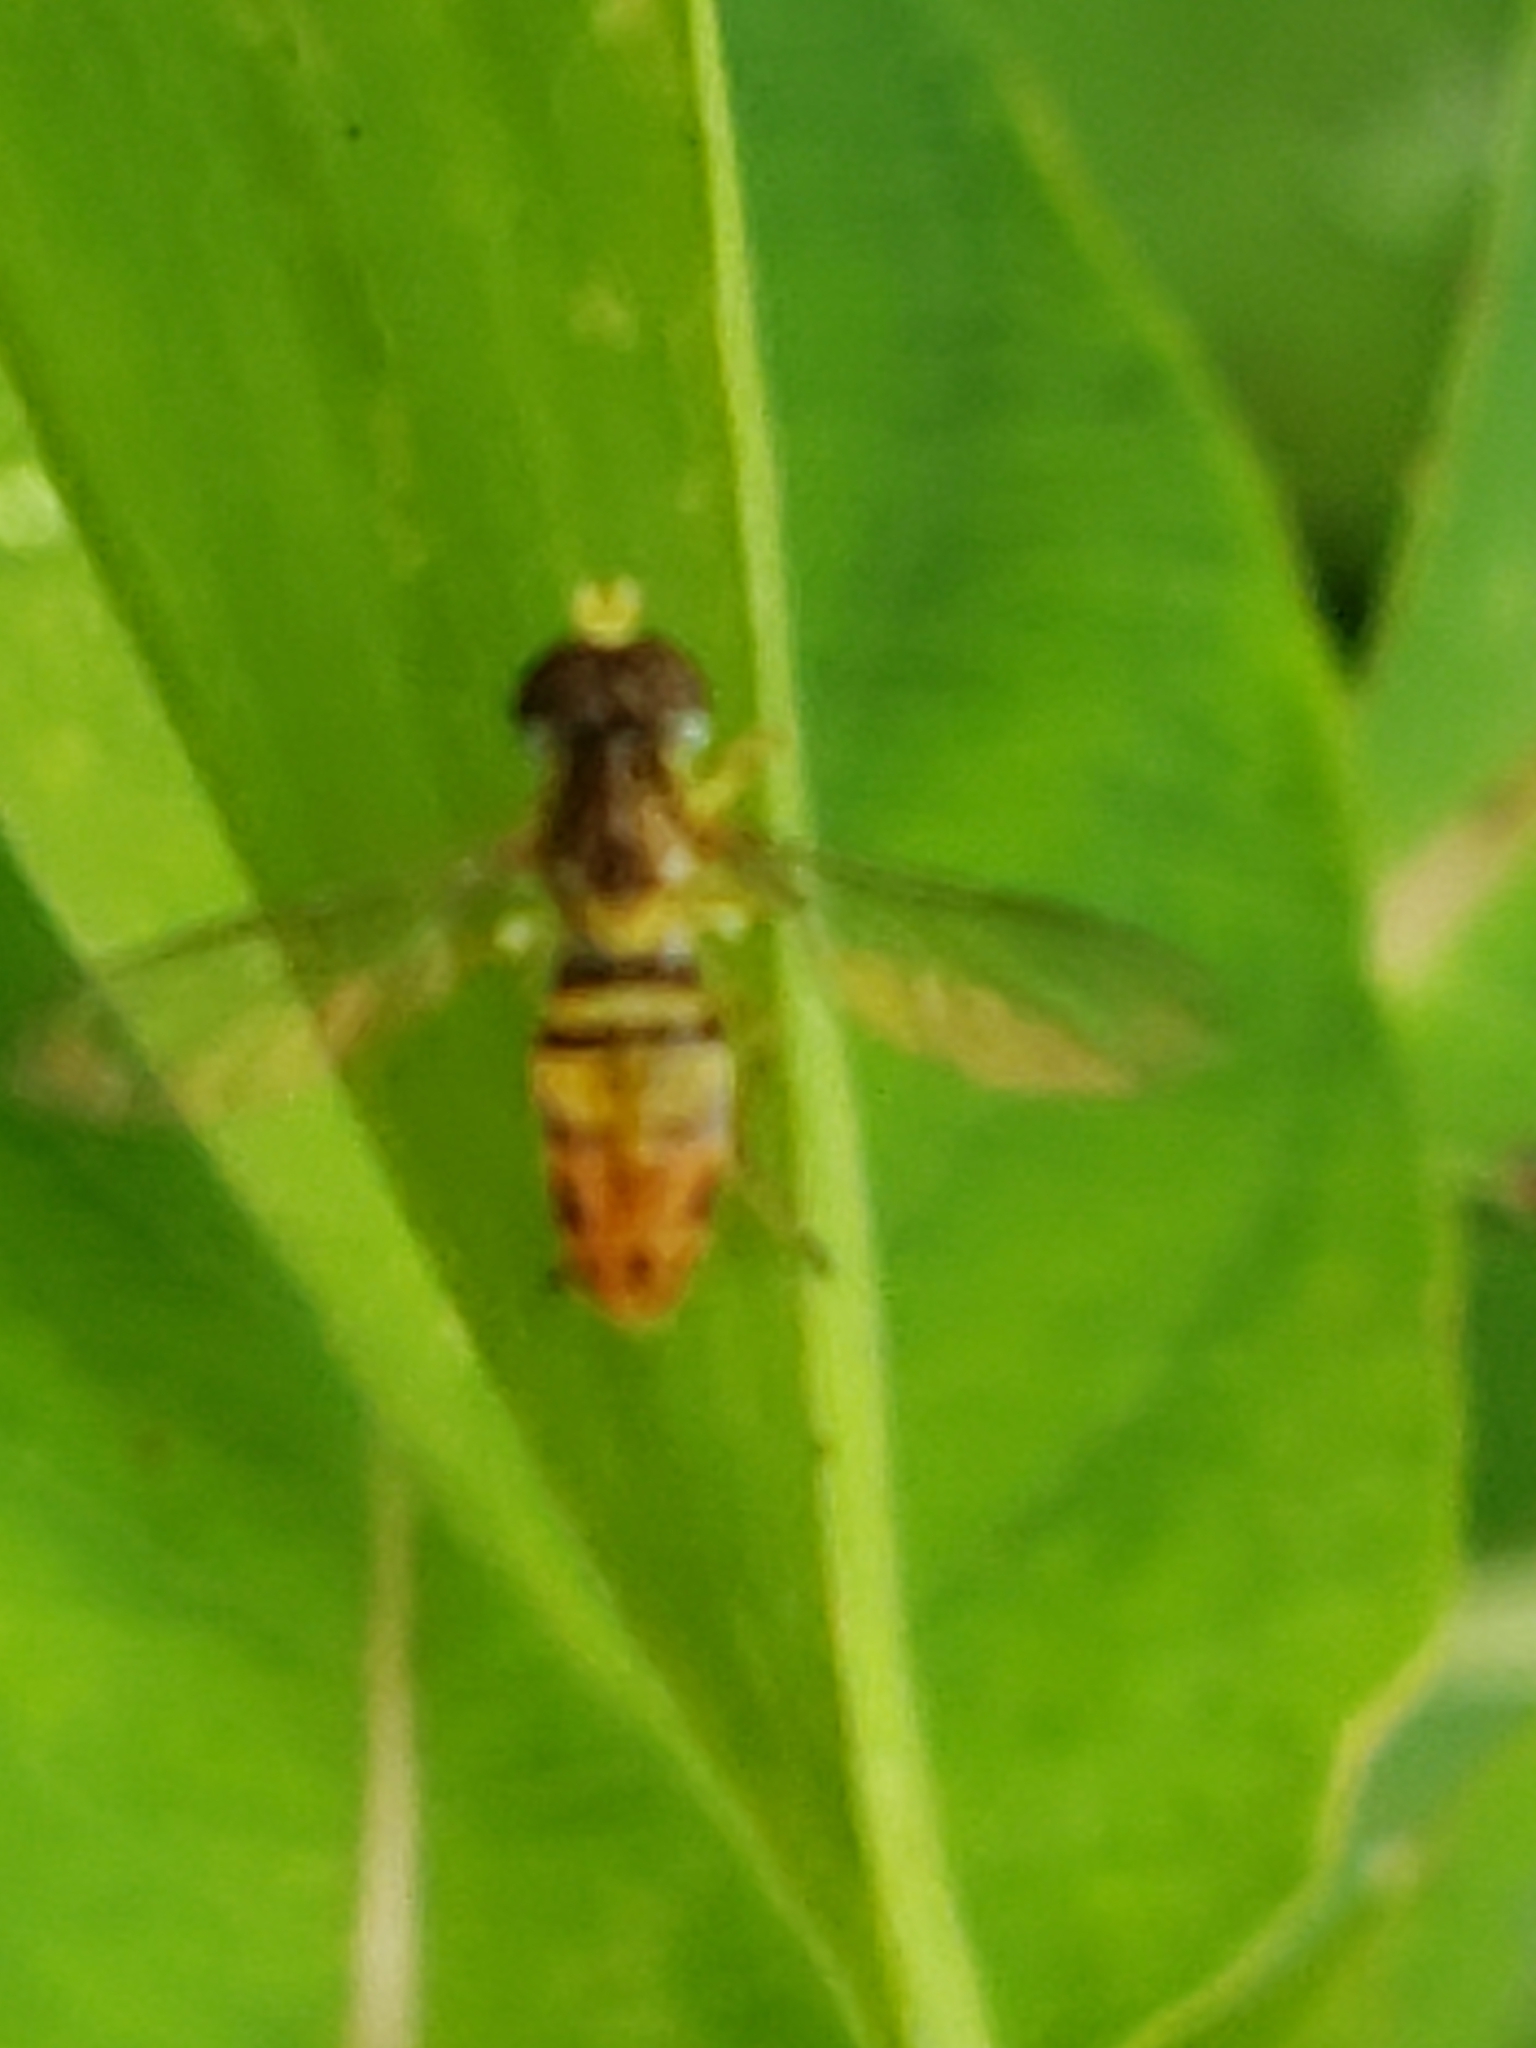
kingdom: Animalia
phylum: Arthropoda
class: Insecta
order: Diptera
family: Syrphidae
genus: Toxomerus
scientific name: Toxomerus marginatus
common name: Syrphid fly
